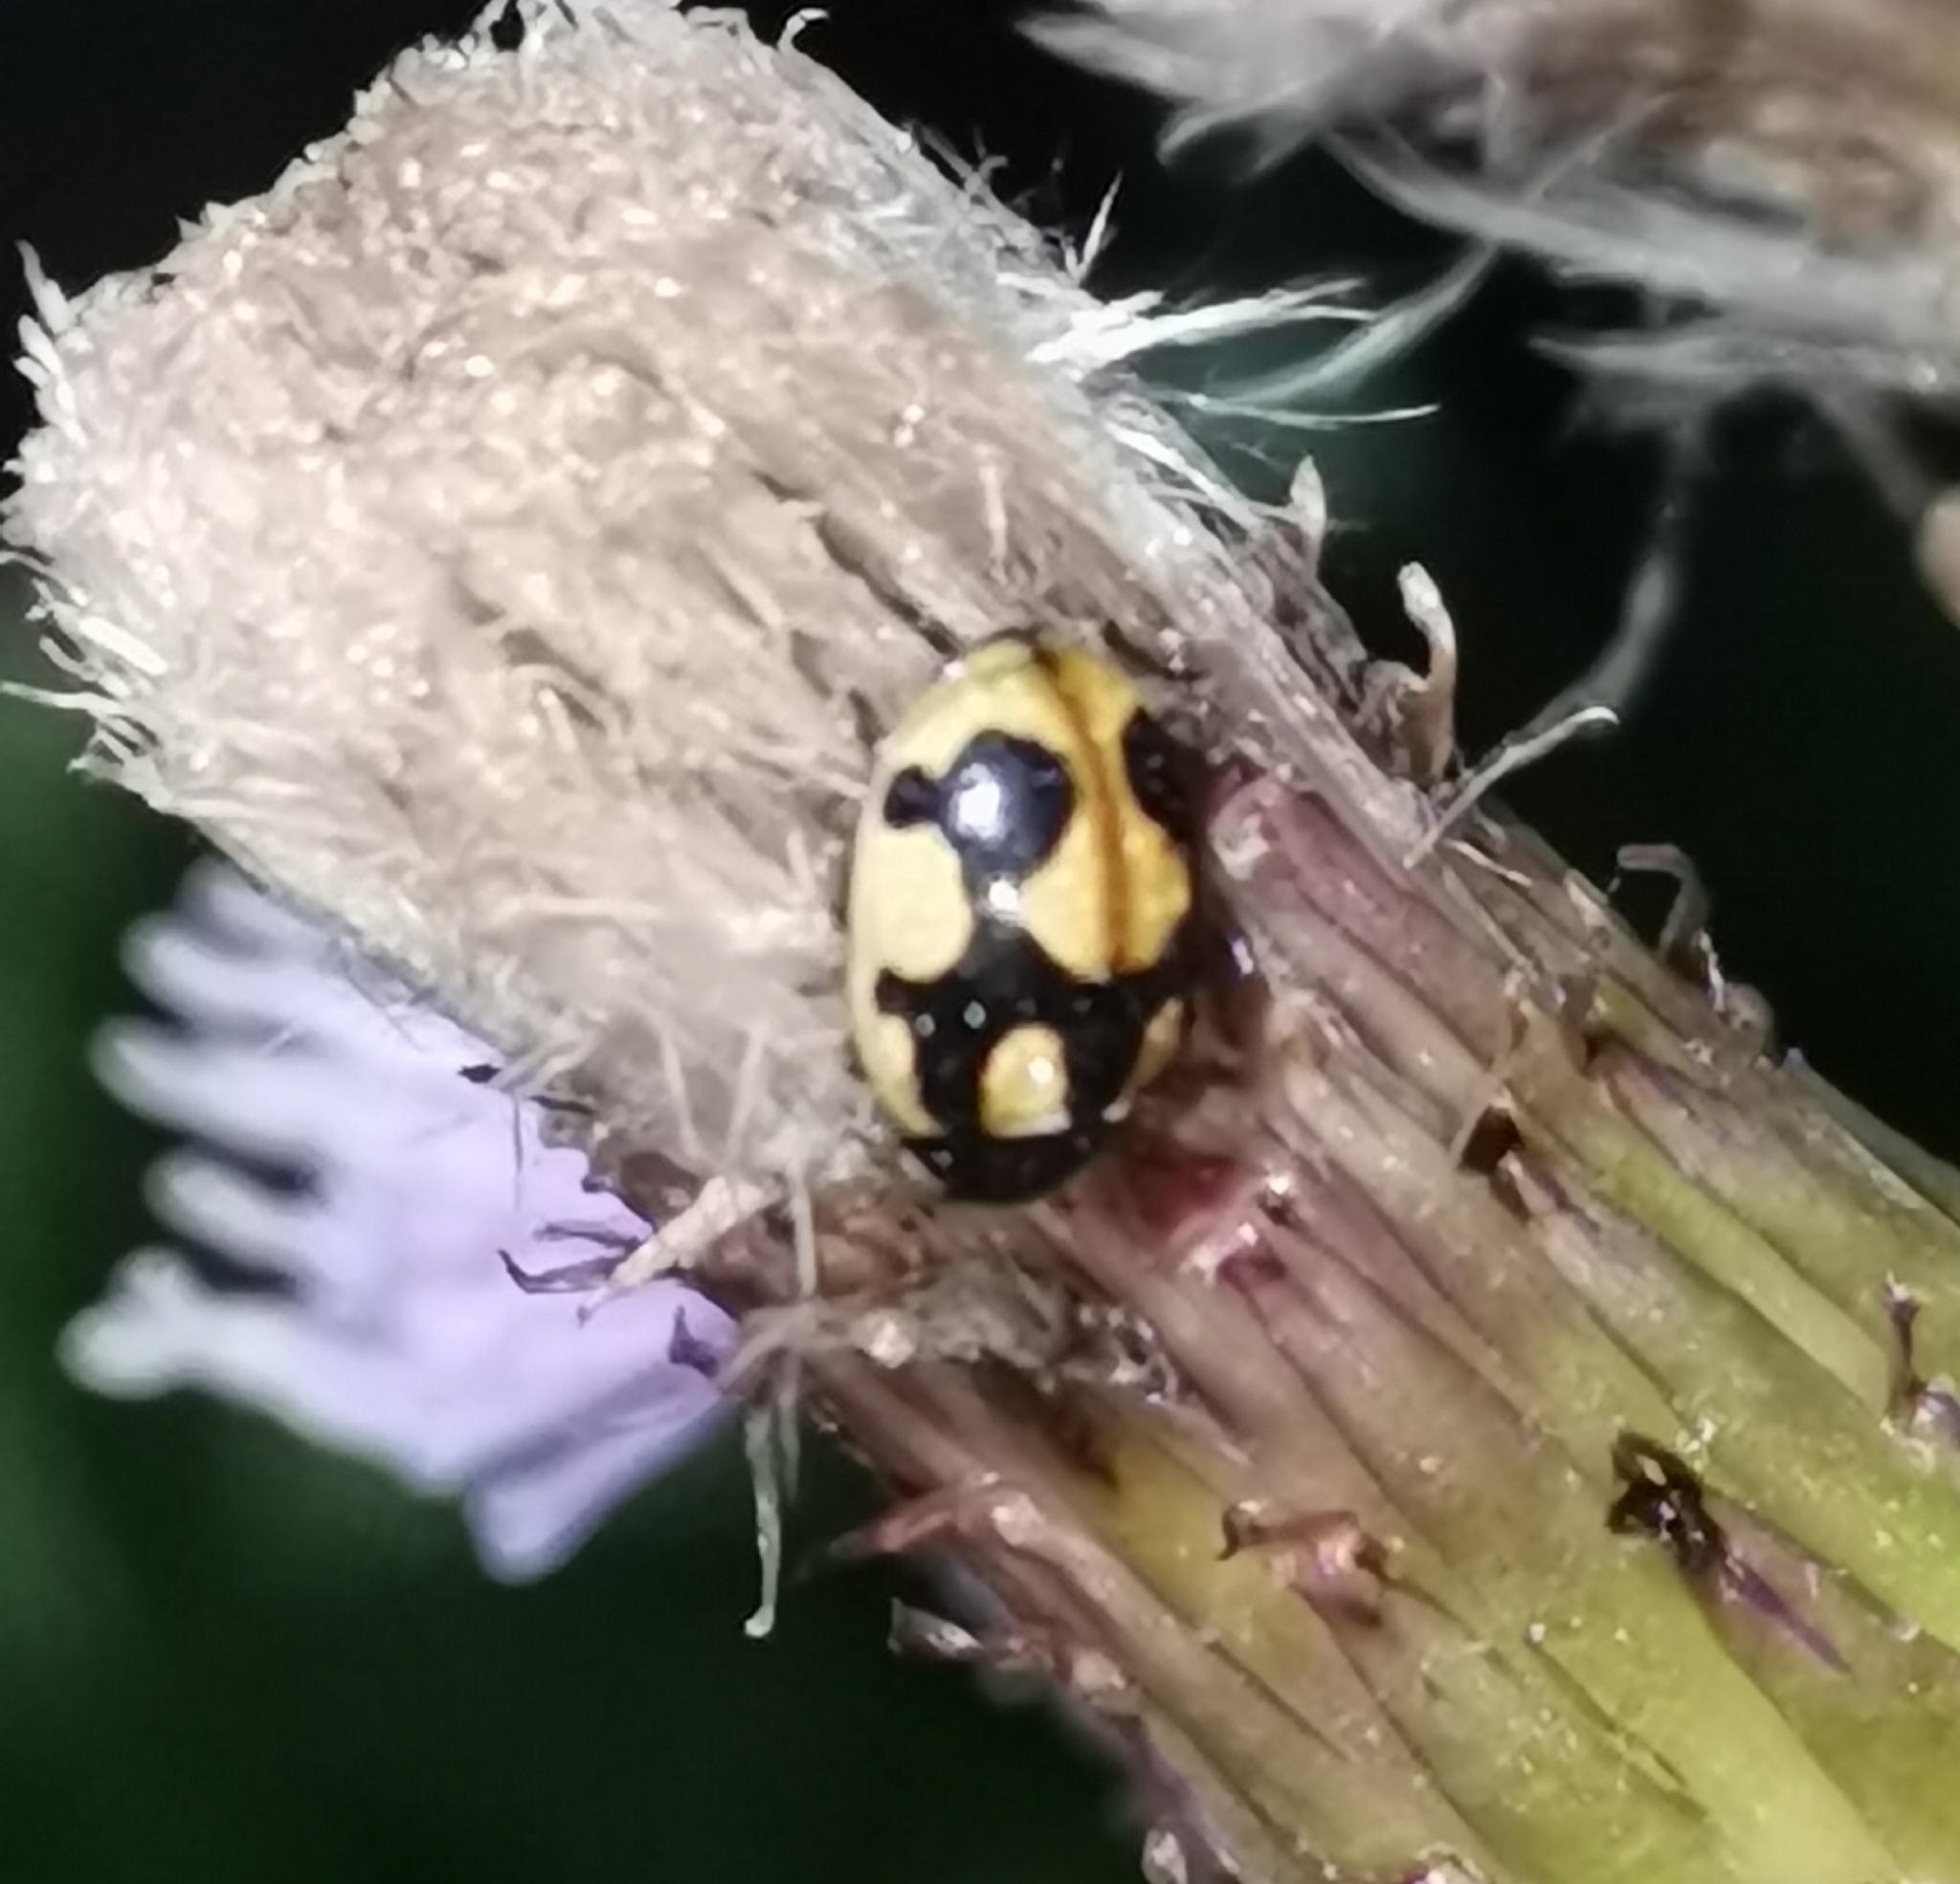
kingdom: Animalia
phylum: Arthropoda
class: Insecta
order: Coleoptera
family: Coccinellidae
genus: Coccinella
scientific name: Coccinella hieroglyphica
